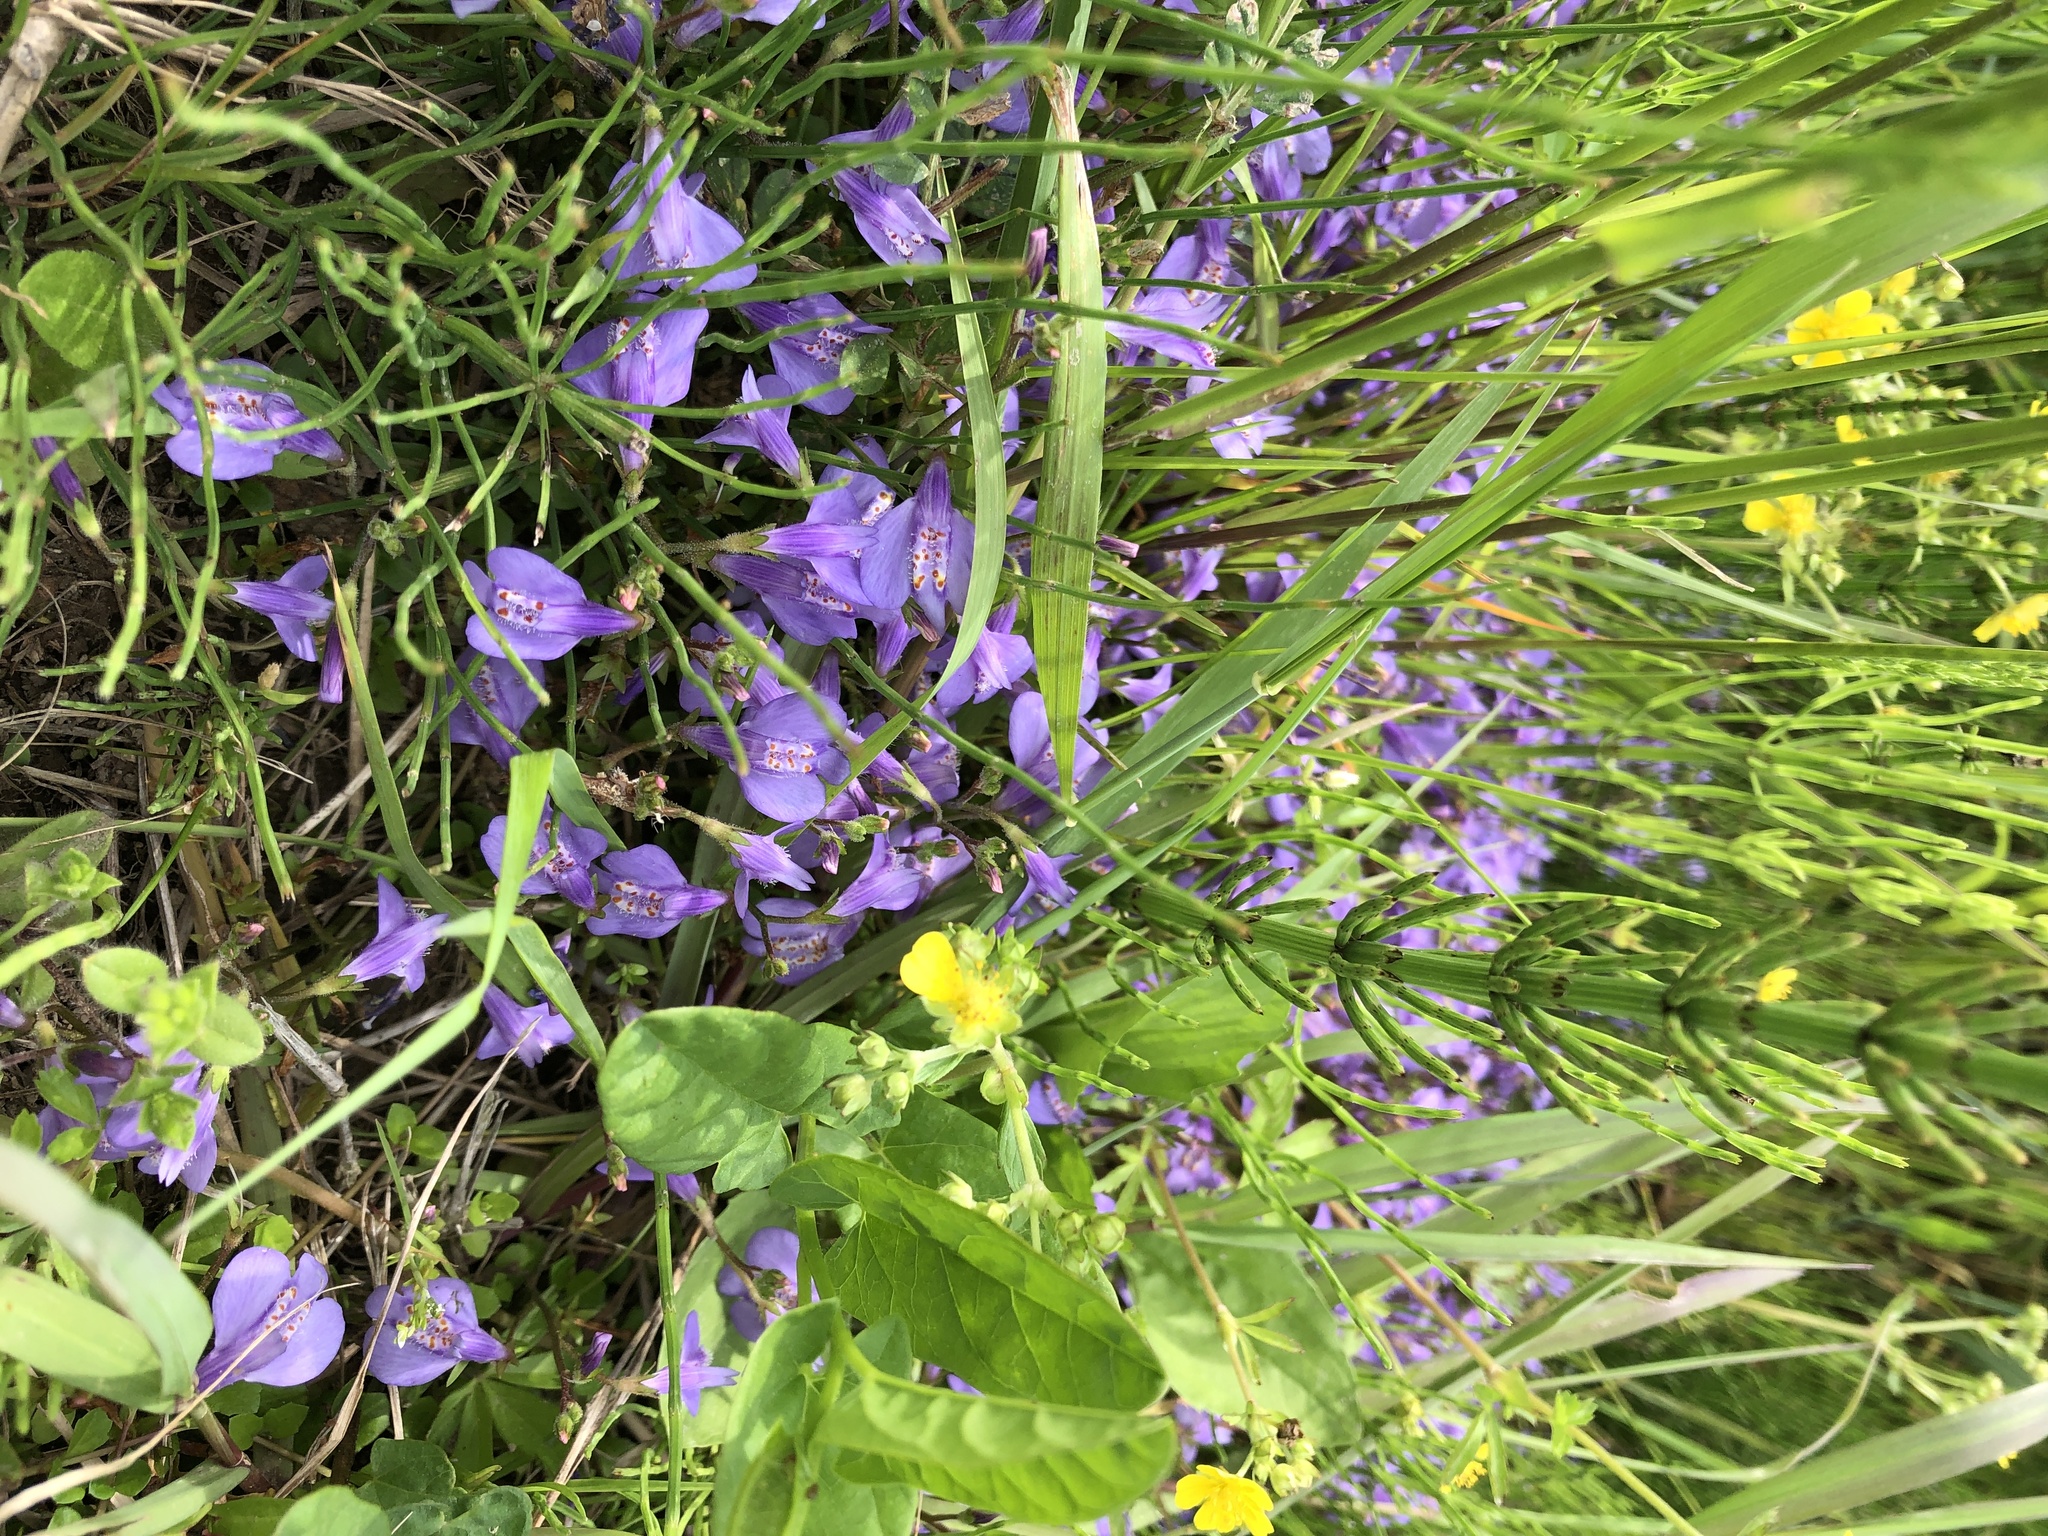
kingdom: Plantae
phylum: Tracheophyta
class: Magnoliopsida
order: Lamiales
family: Mazaceae
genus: Mazus
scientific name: Mazus miquelii
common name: Miquel's mazus
